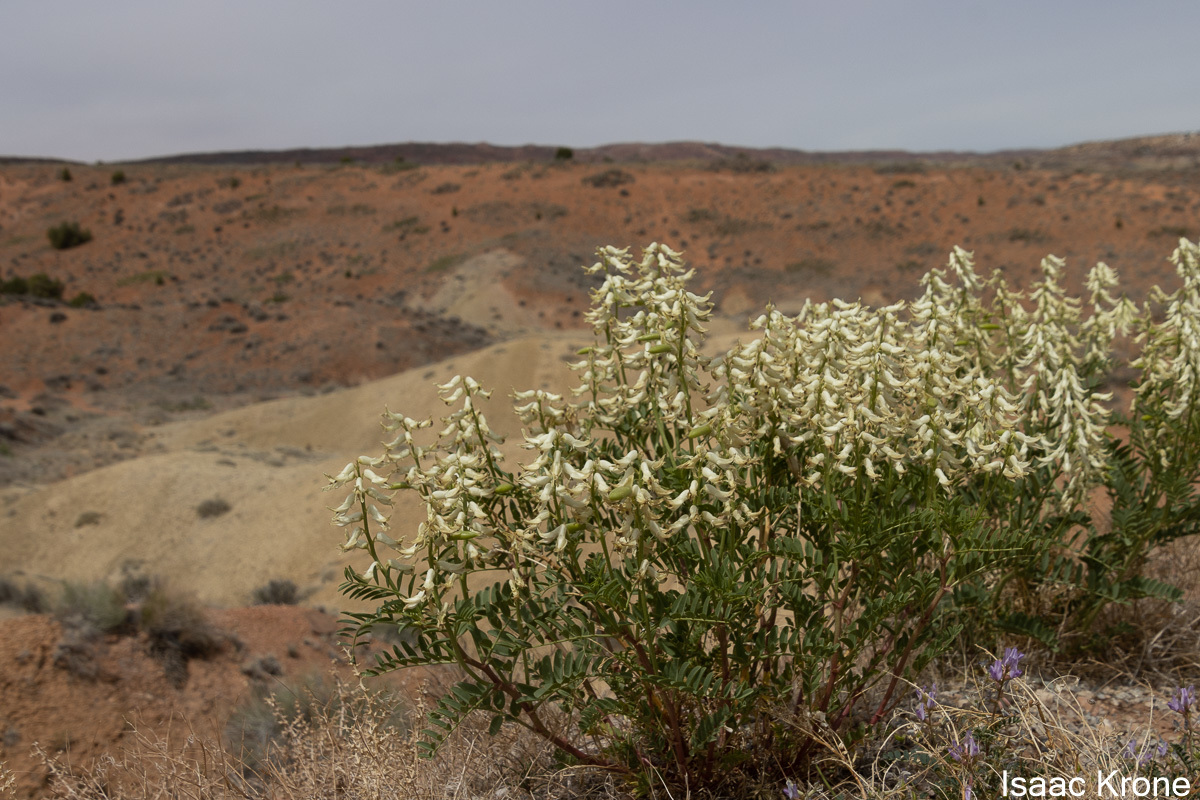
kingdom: Plantae
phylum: Tracheophyta
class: Magnoliopsida
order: Fabales
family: Fabaceae
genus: Astragalus
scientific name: Astragalus praelongus
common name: Stinking milk-vetch
